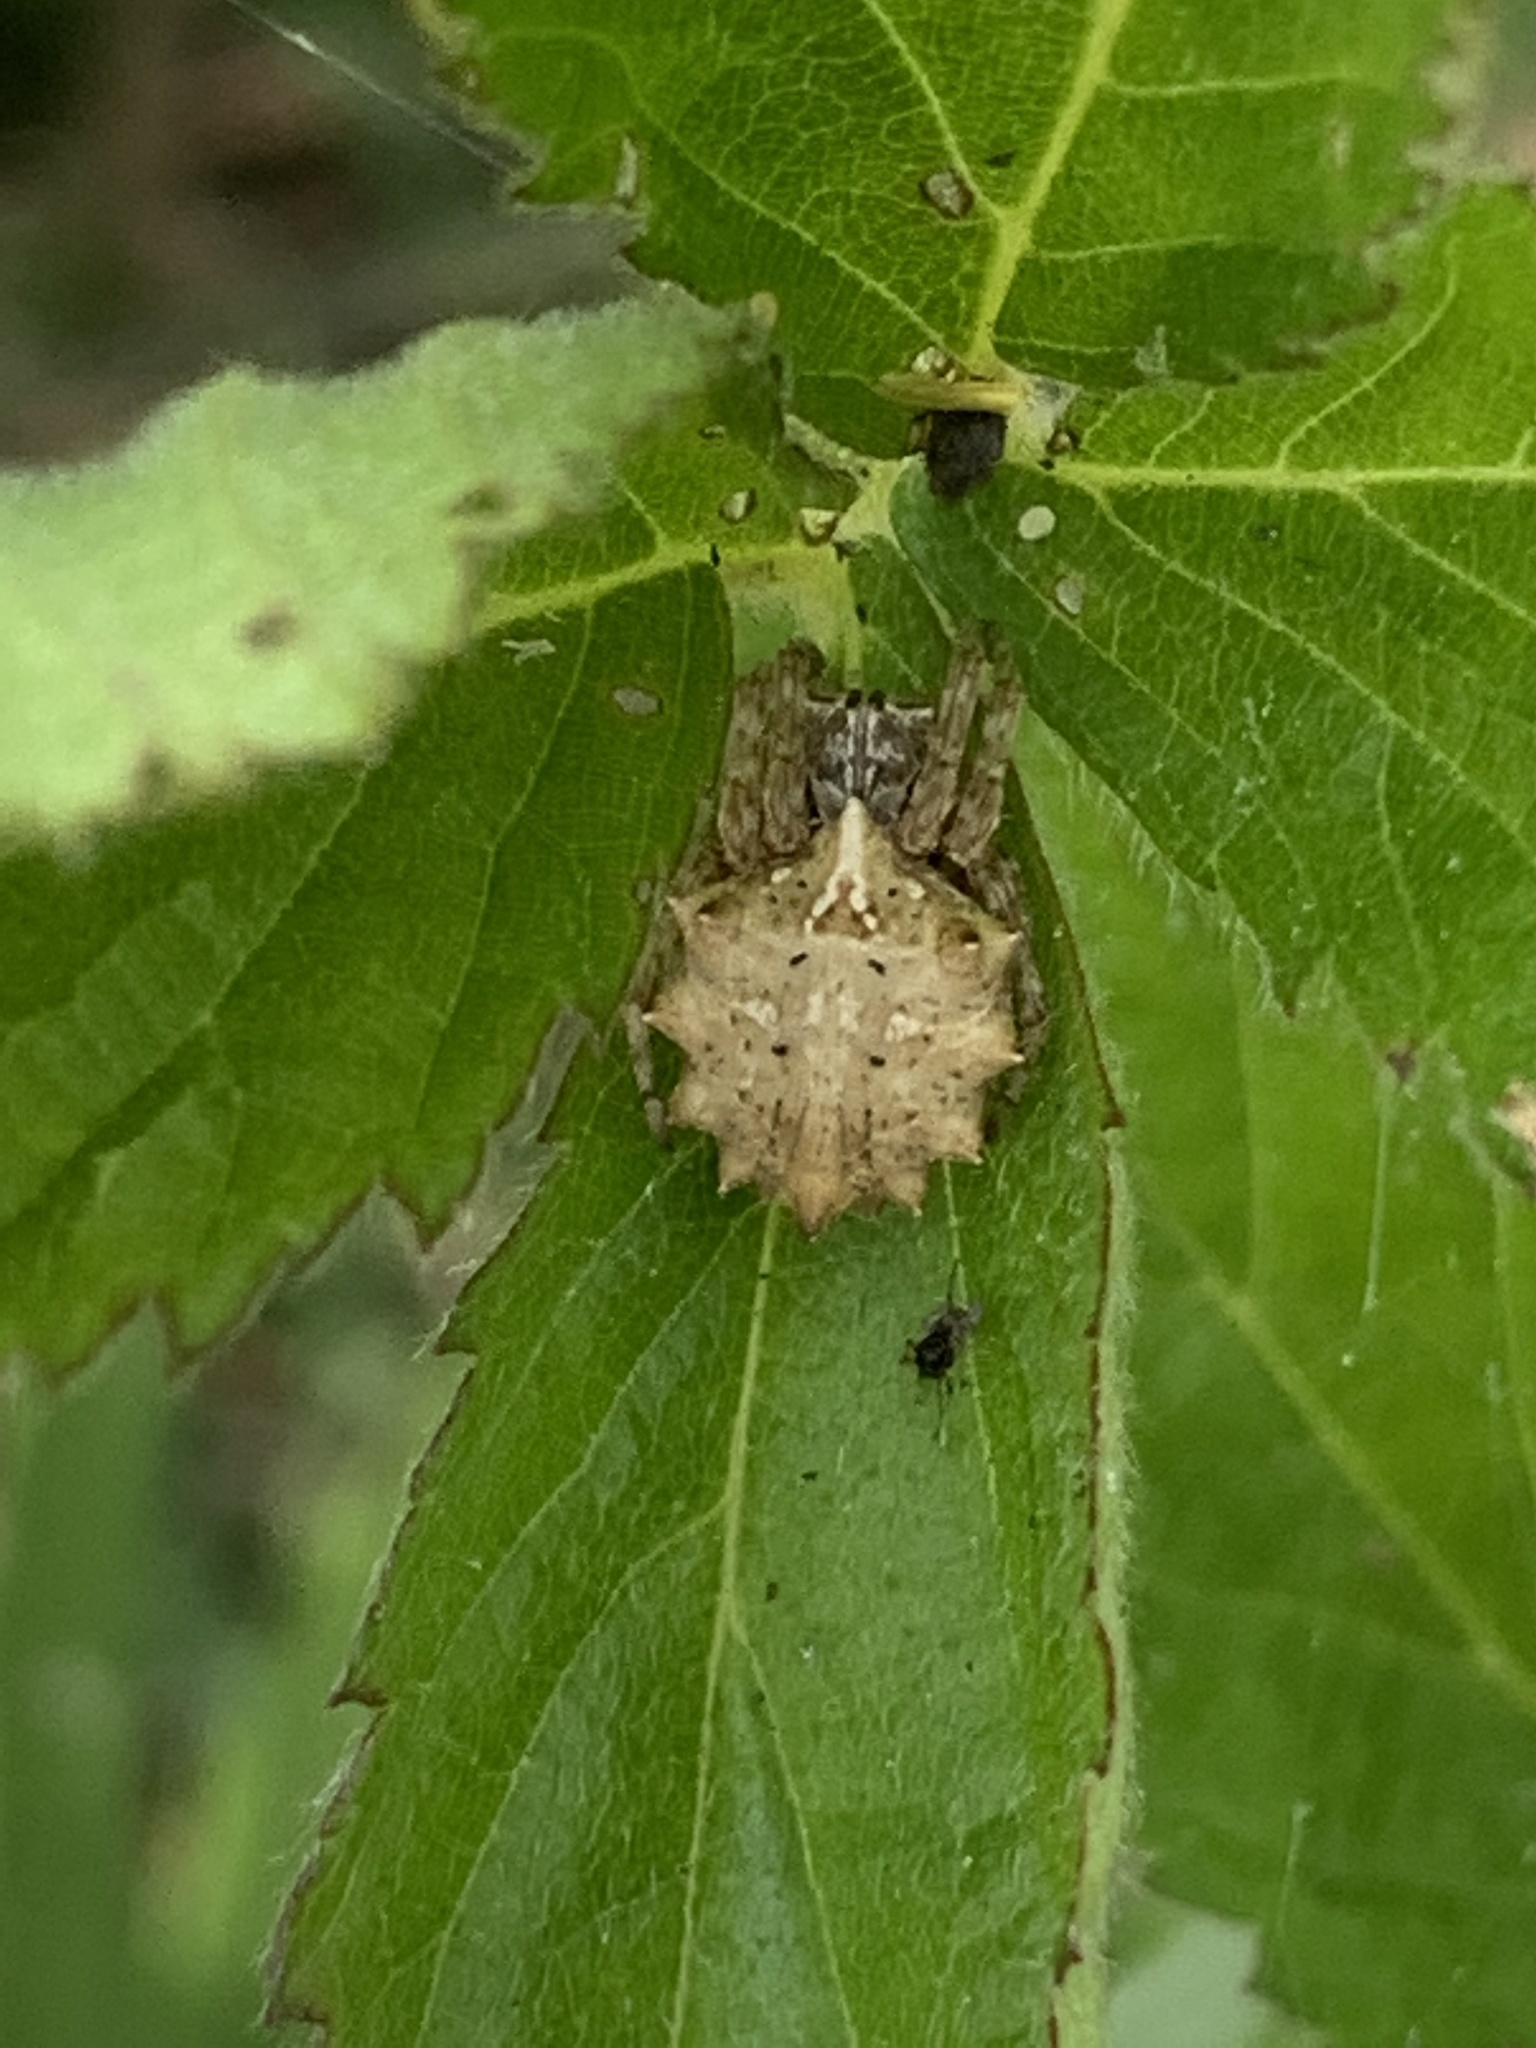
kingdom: Animalia
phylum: Arthropoda
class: Arachnida
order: Araneae
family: Araneidae
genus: Acanthepeira
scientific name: Acanthepeira stellata
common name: Starbellied orbweaver
